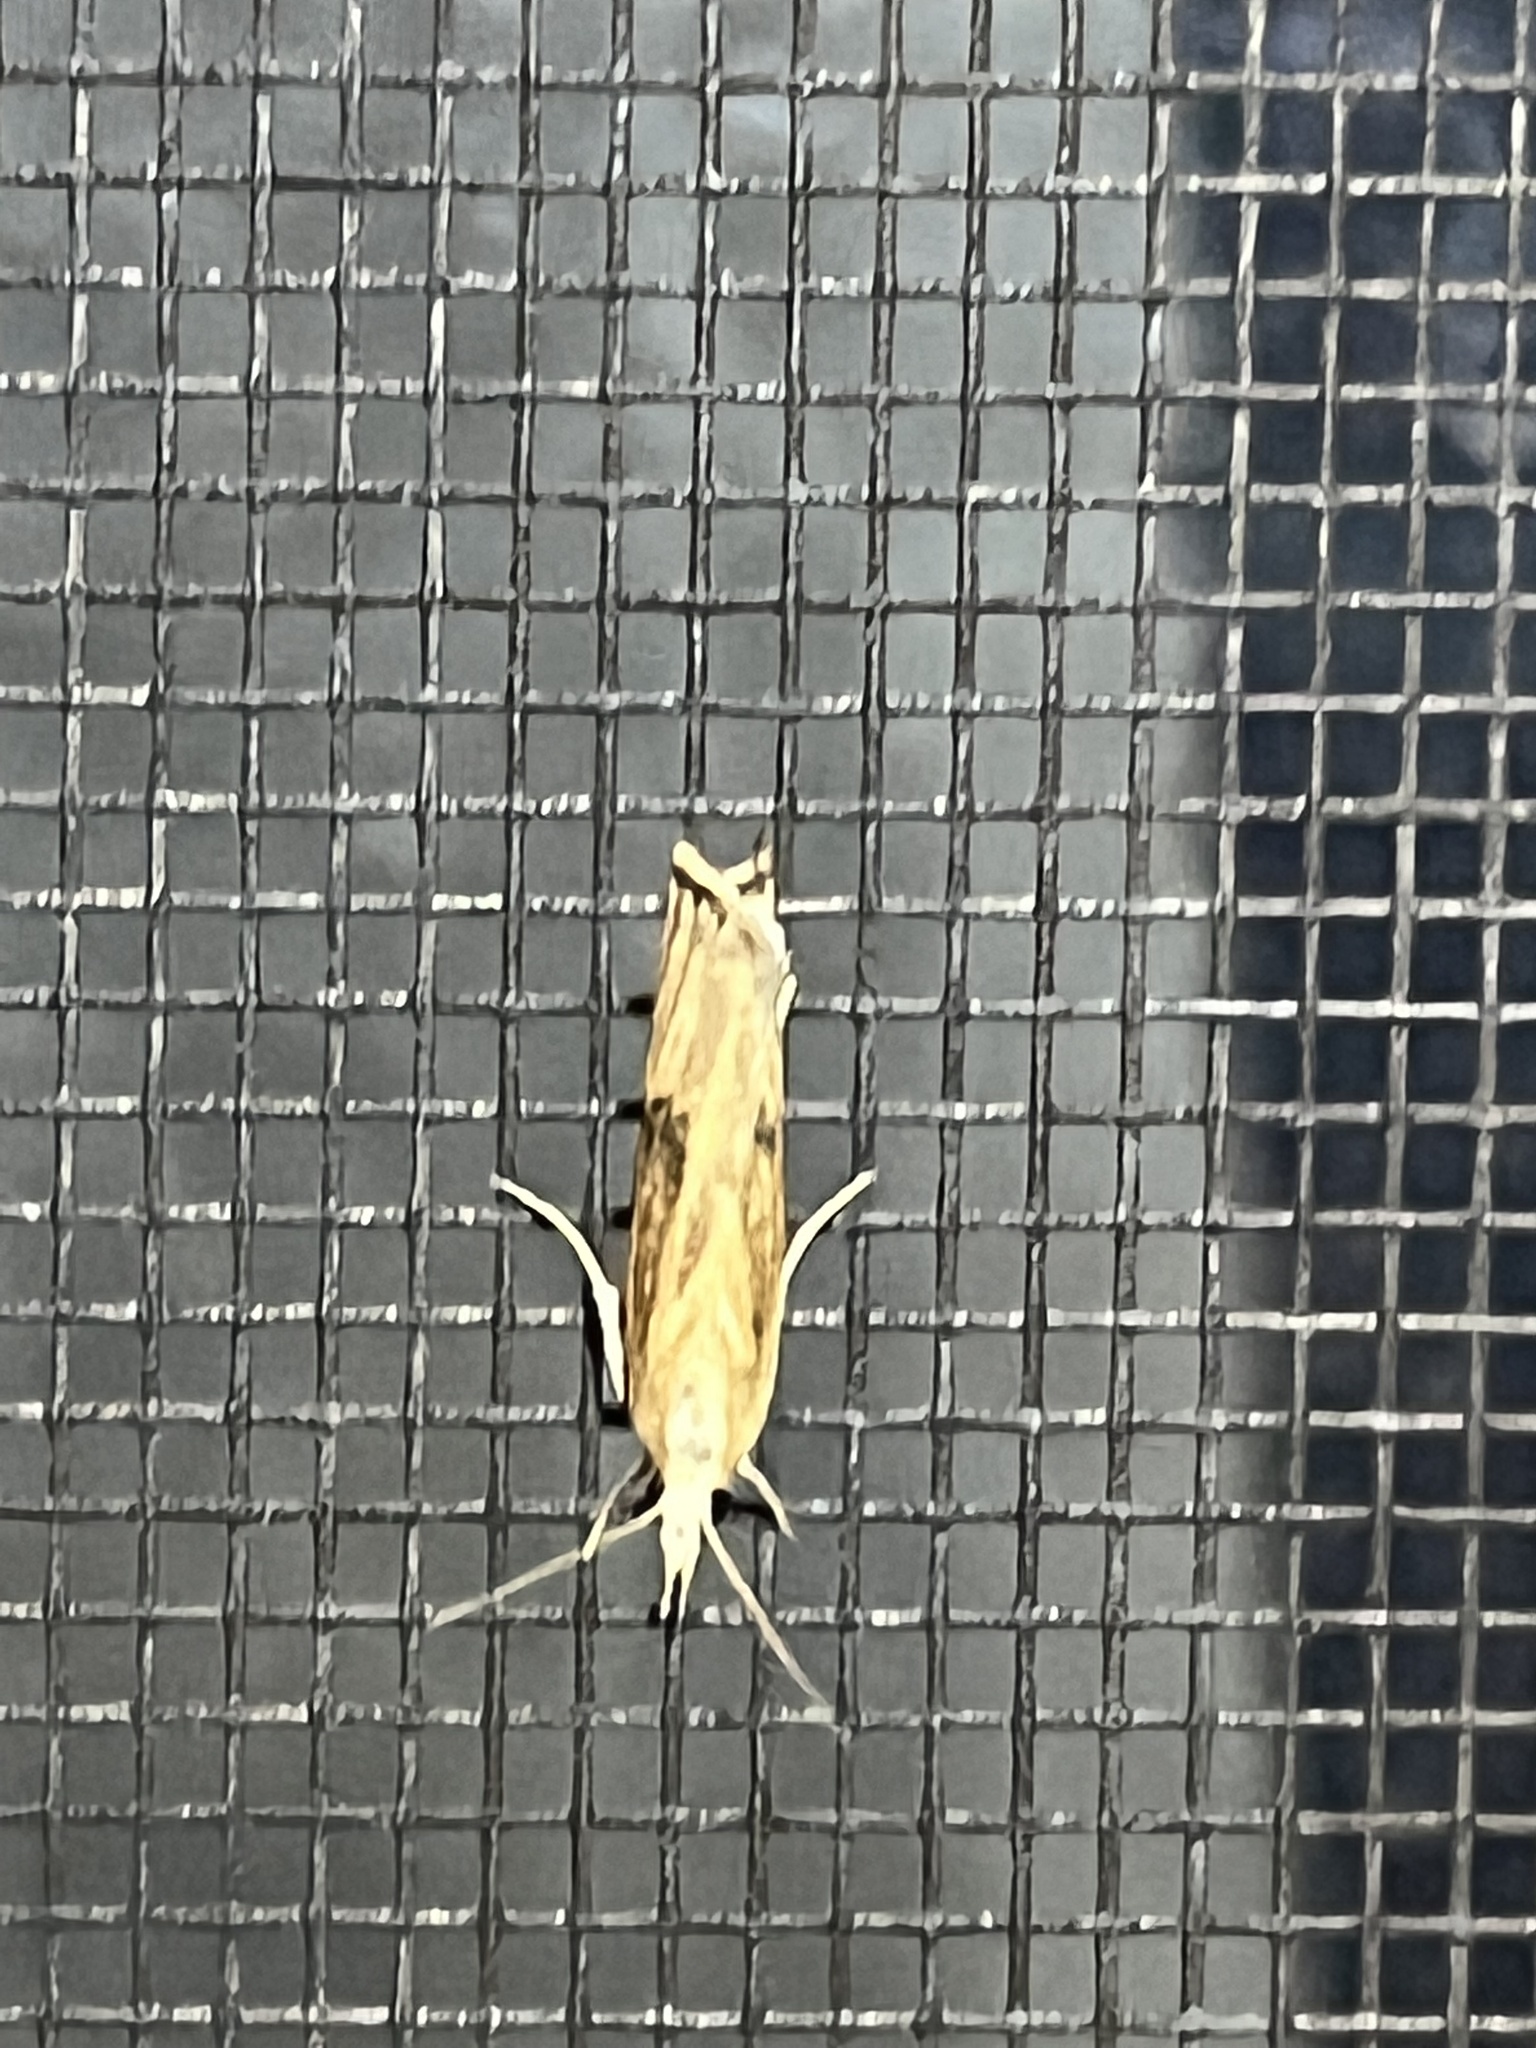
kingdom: Animalia
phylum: Arthropoda
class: Insecta
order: Lepidoptera
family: Crambidae
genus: Parapediasia
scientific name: Parapediasia teterellus
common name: Bluegrass webworm moth
